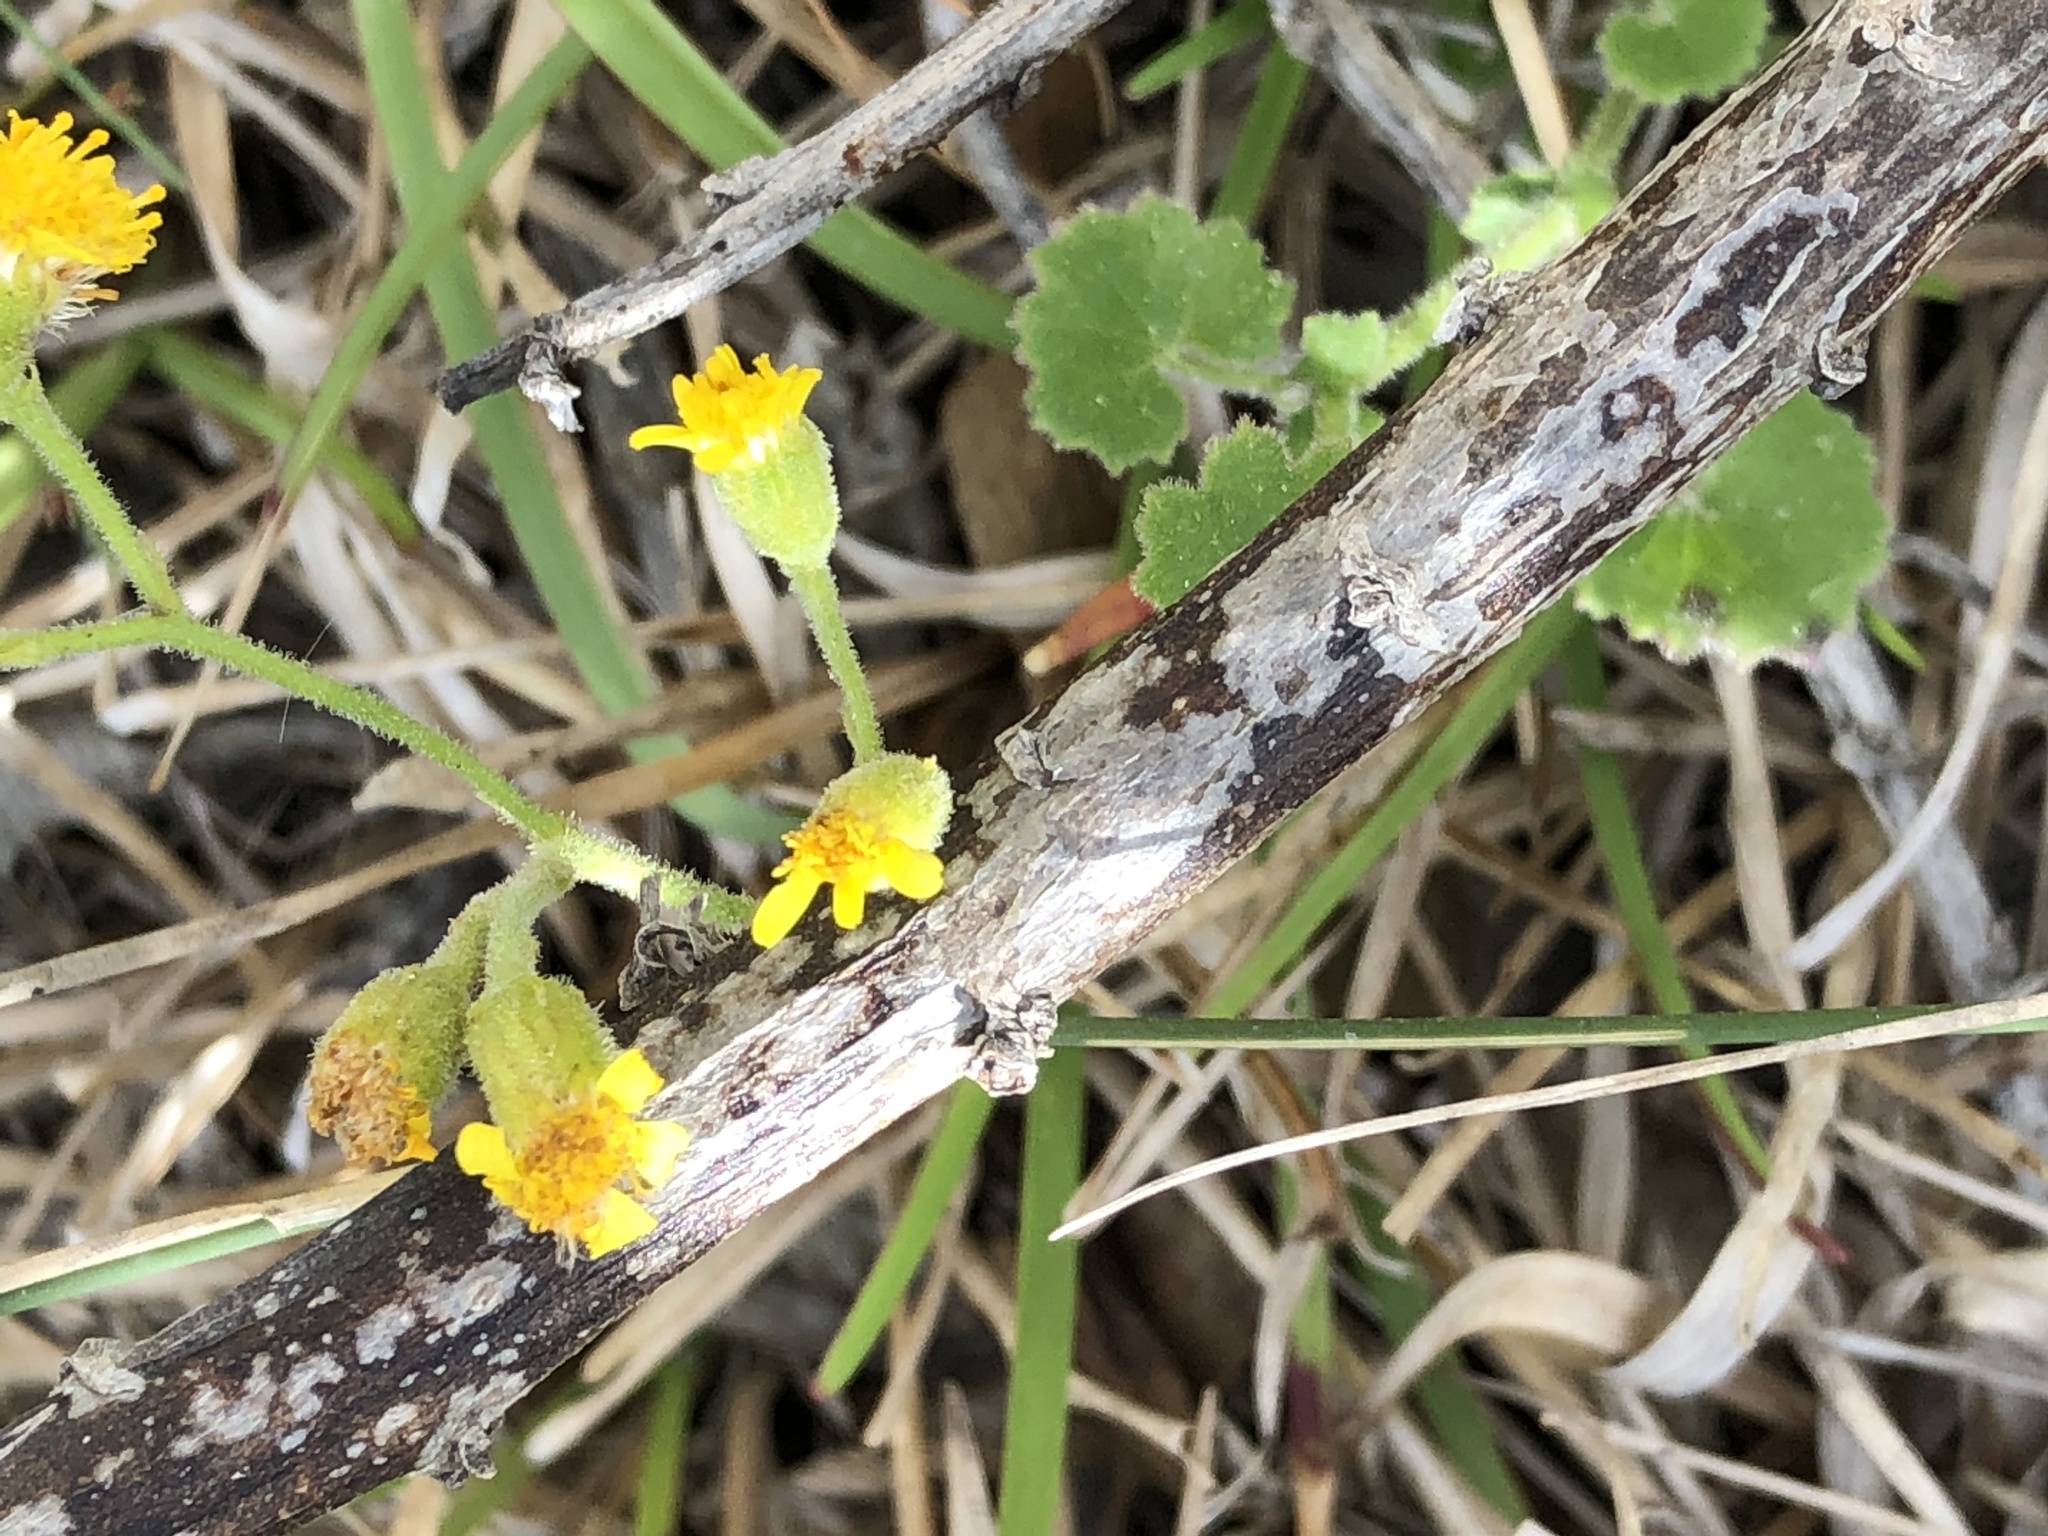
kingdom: Plantae
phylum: Tracheophyta
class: Magnoliopsida
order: Asterales
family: Asteraceae
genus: Cineraria
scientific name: Cineraria geifolia
